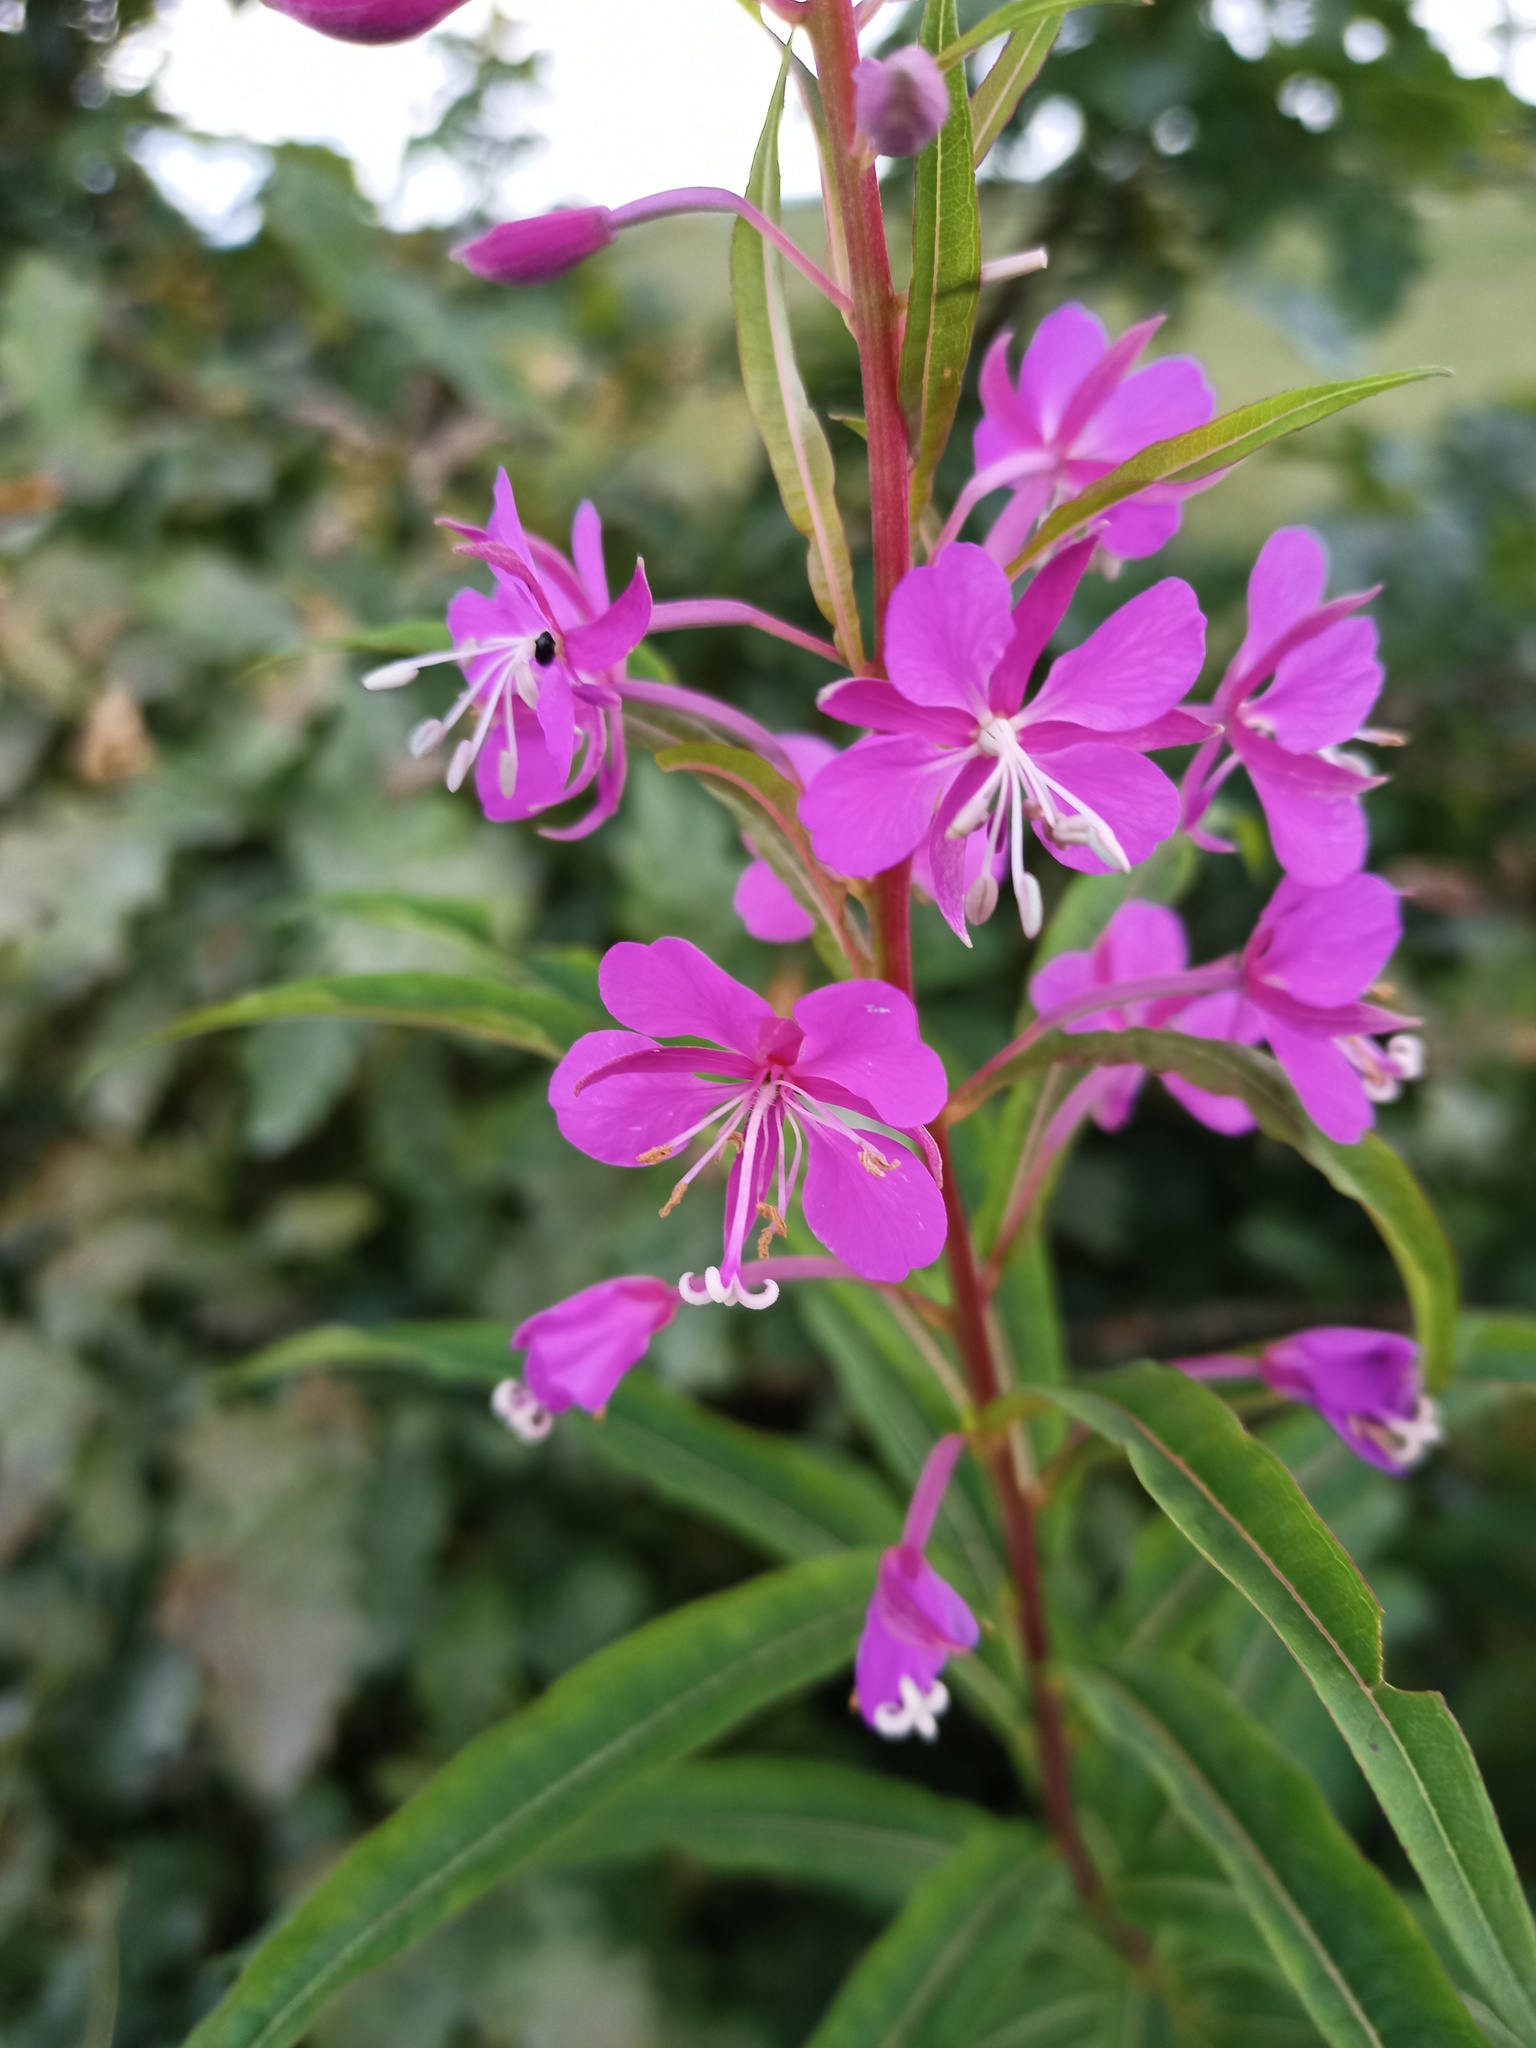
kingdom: Plantae
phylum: Tracheophyta
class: Magnoliopsida
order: Myrtales
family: Onagraceae
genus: Chamaenerion
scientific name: Chamaenerion angustifolium
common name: Fireweed
